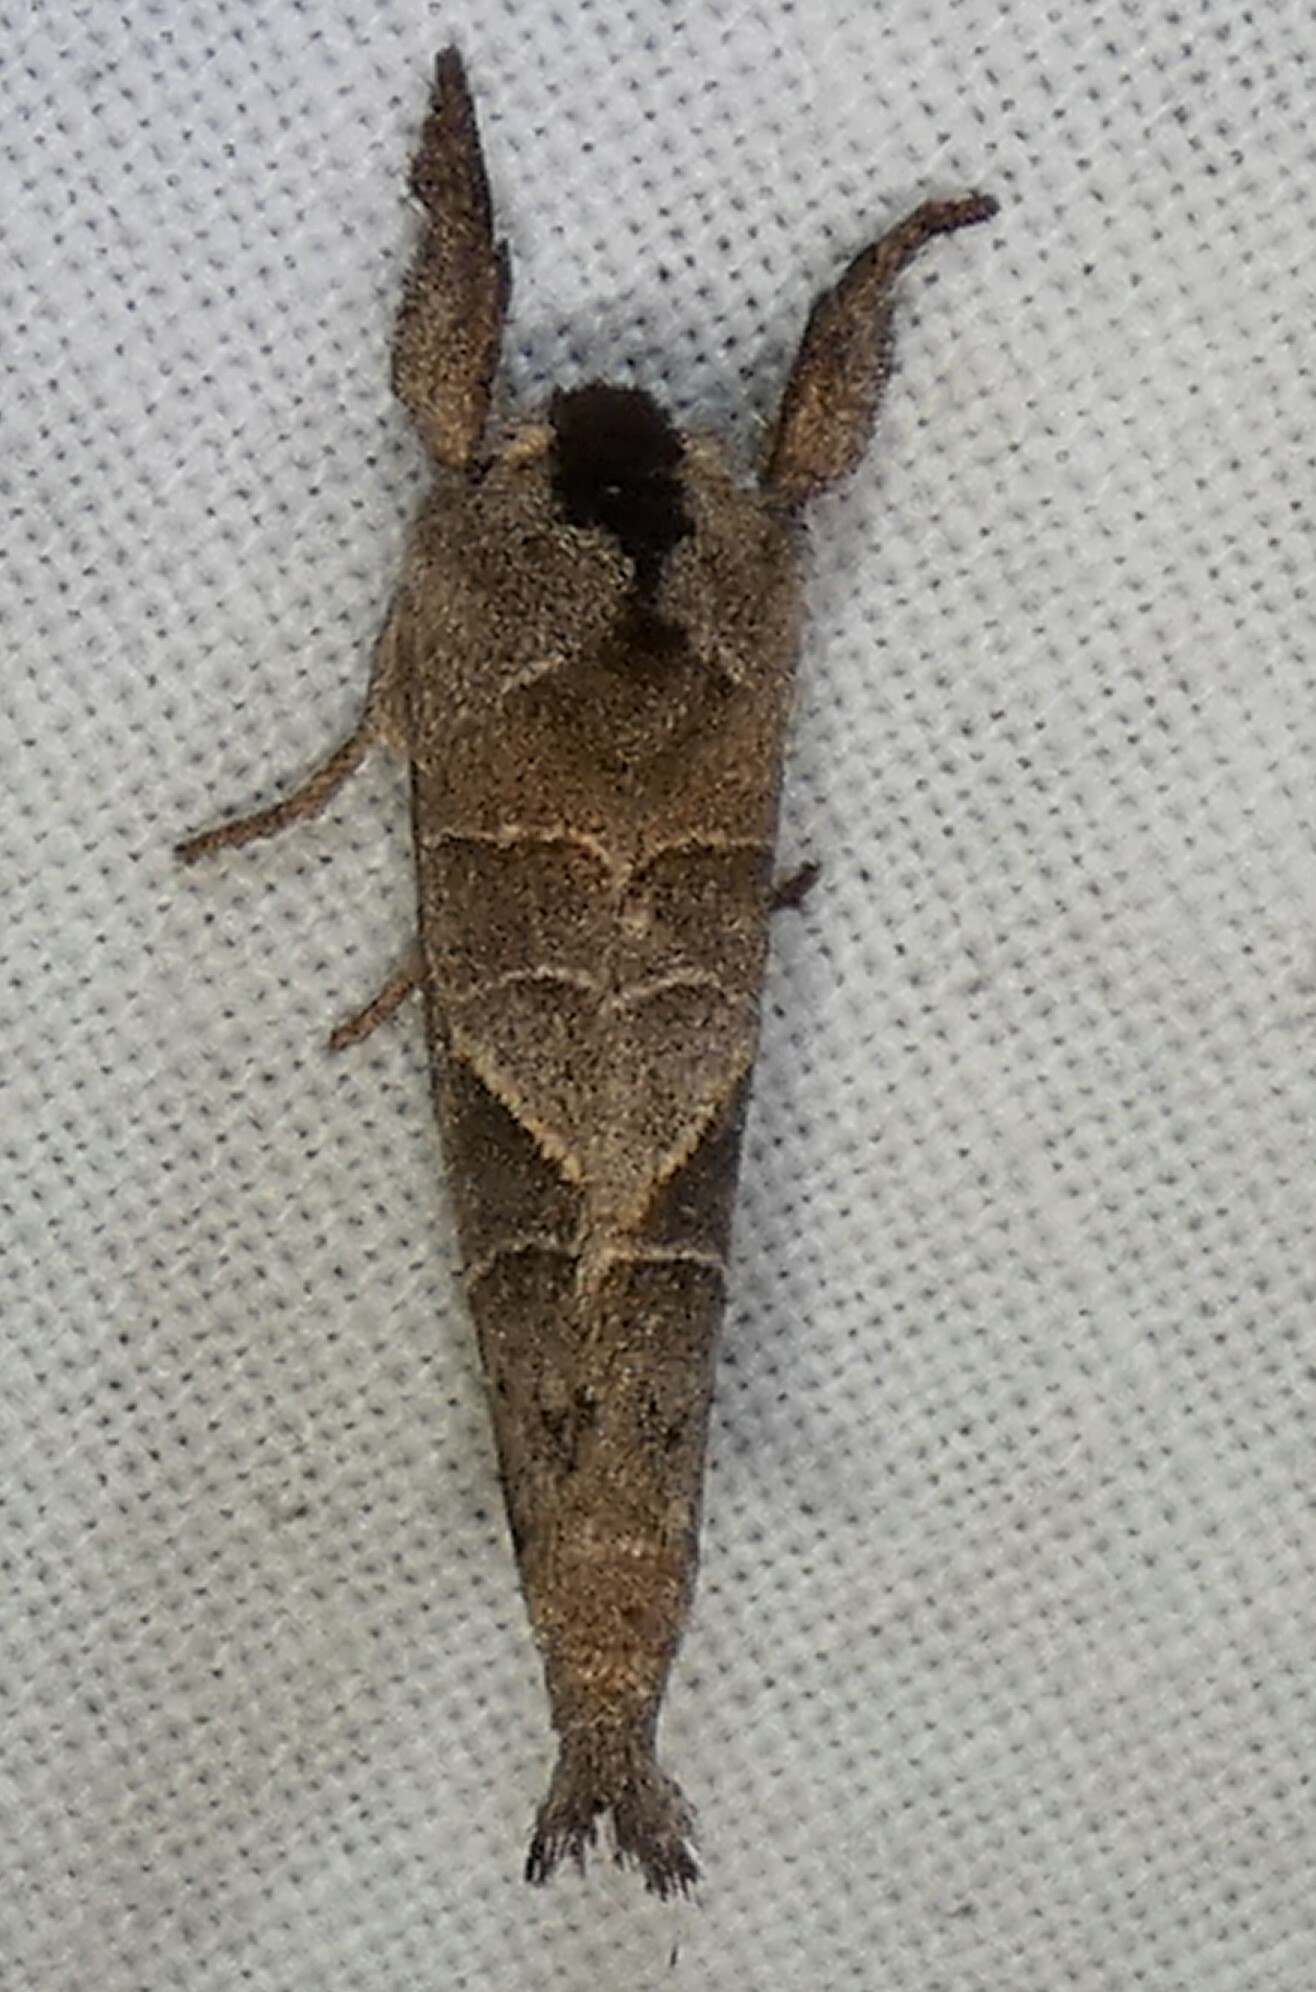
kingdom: Animalia
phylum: Arthropoda
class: Insecta
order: Lepidoptera
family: Notodontidae
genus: Clostera
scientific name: Clostera inclusa
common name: Angle-lined prominent
